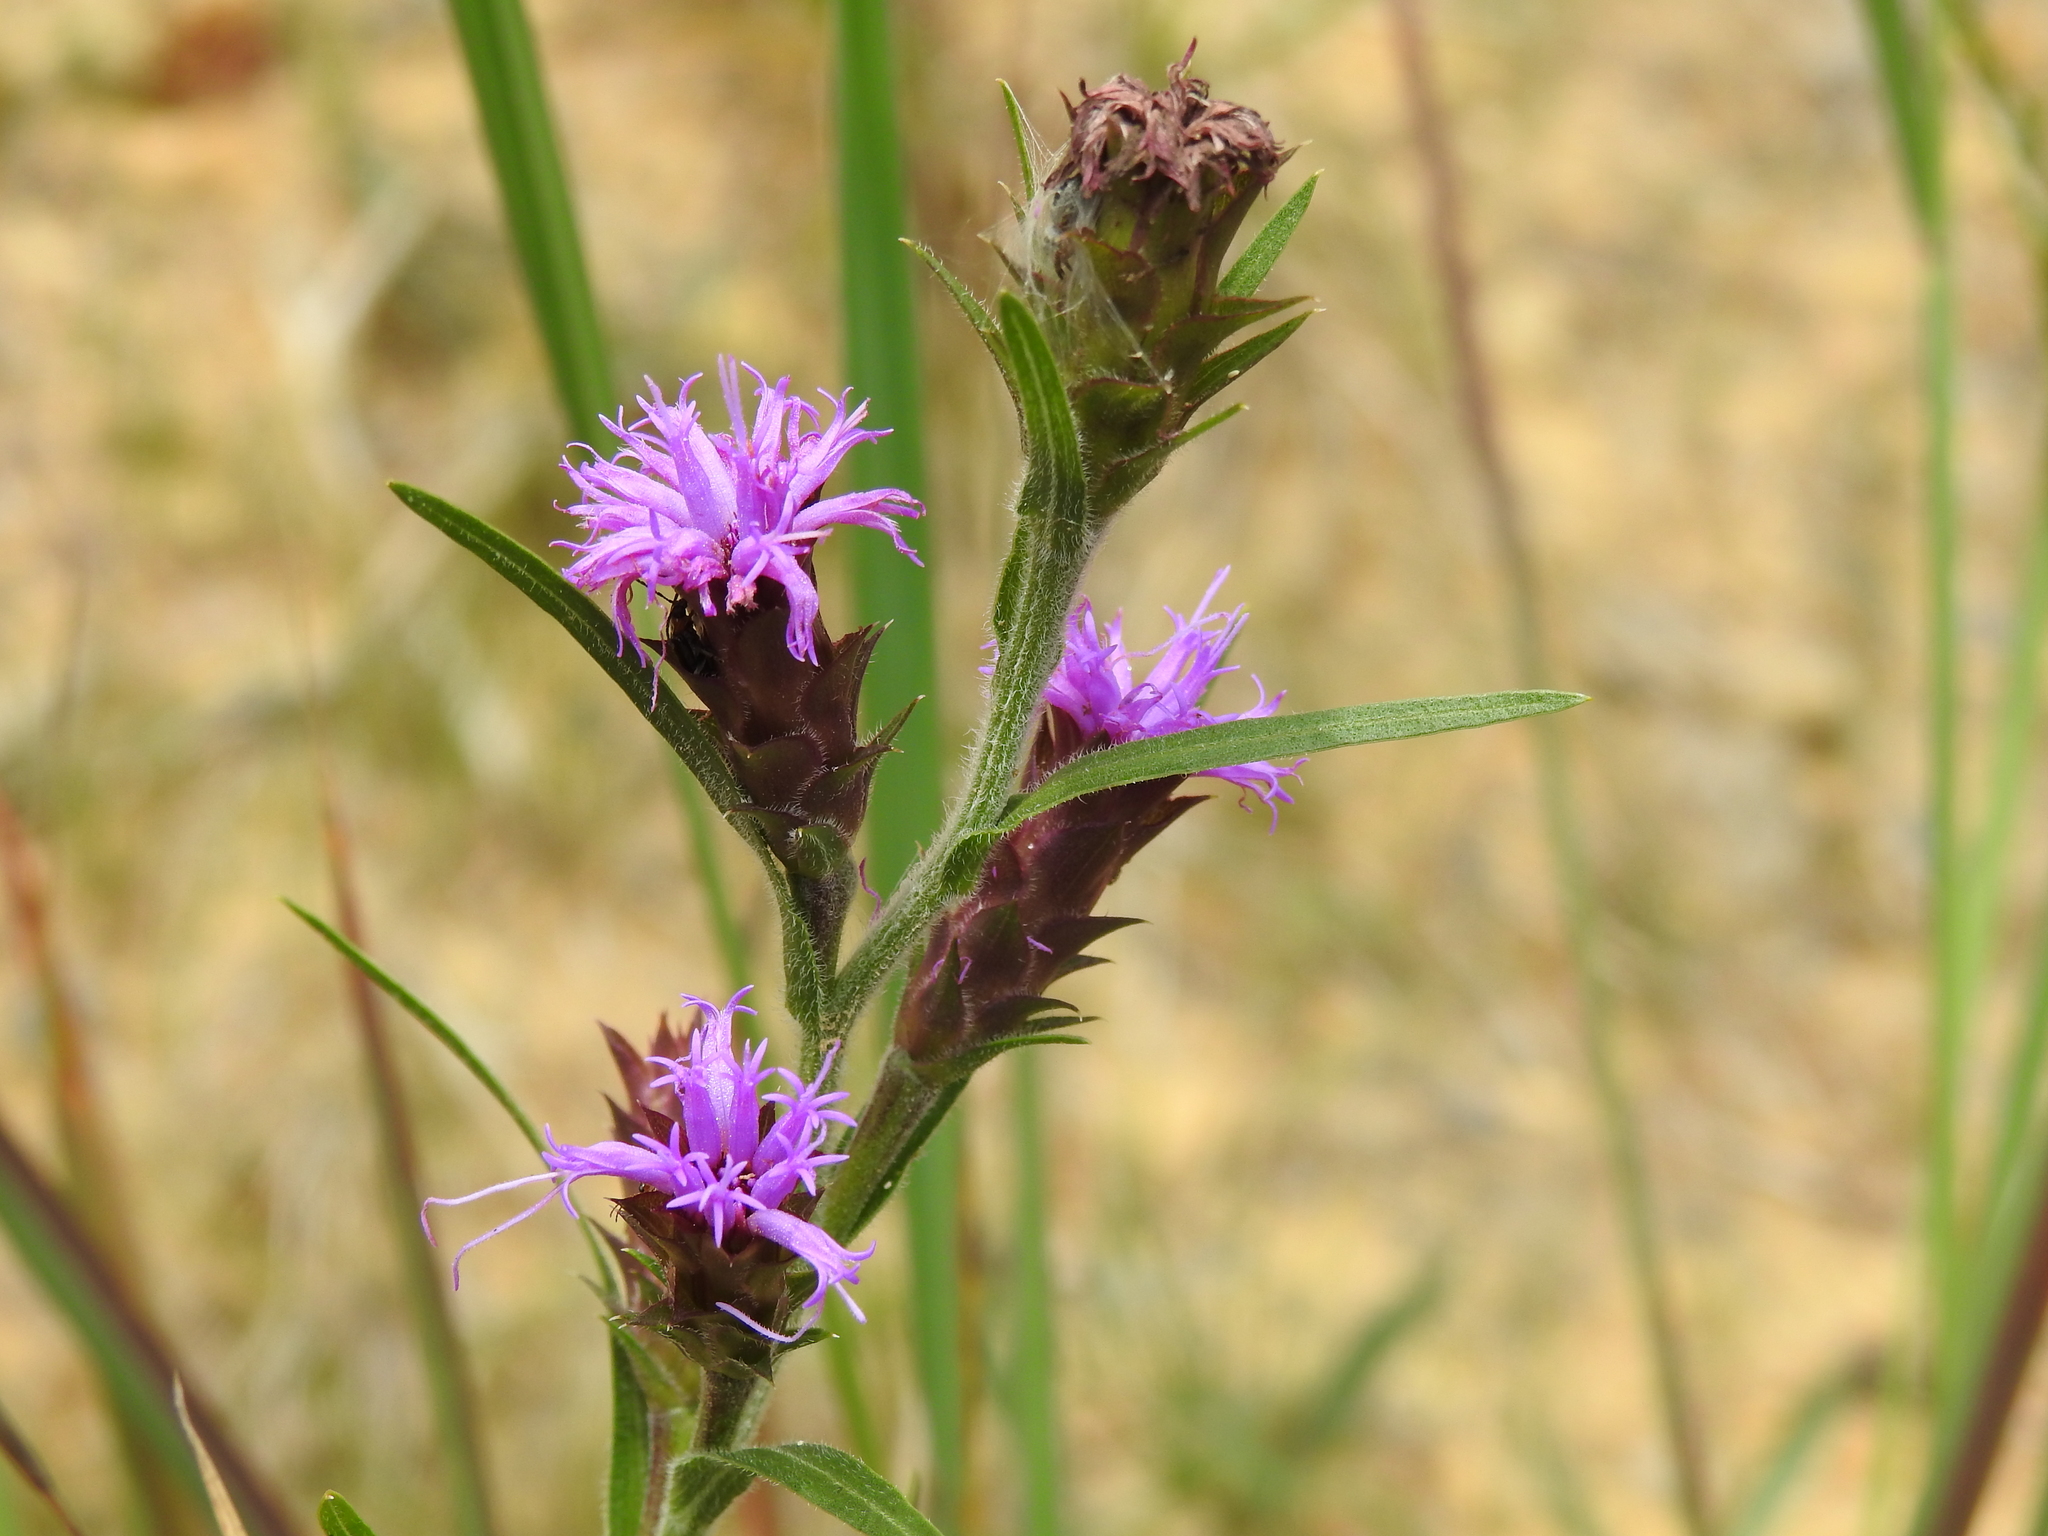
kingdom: Plantae
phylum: Tracheophyta
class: Magnoliopsida
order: Asterales
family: Asteraceae
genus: Liatris
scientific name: Liatris squarrosa
